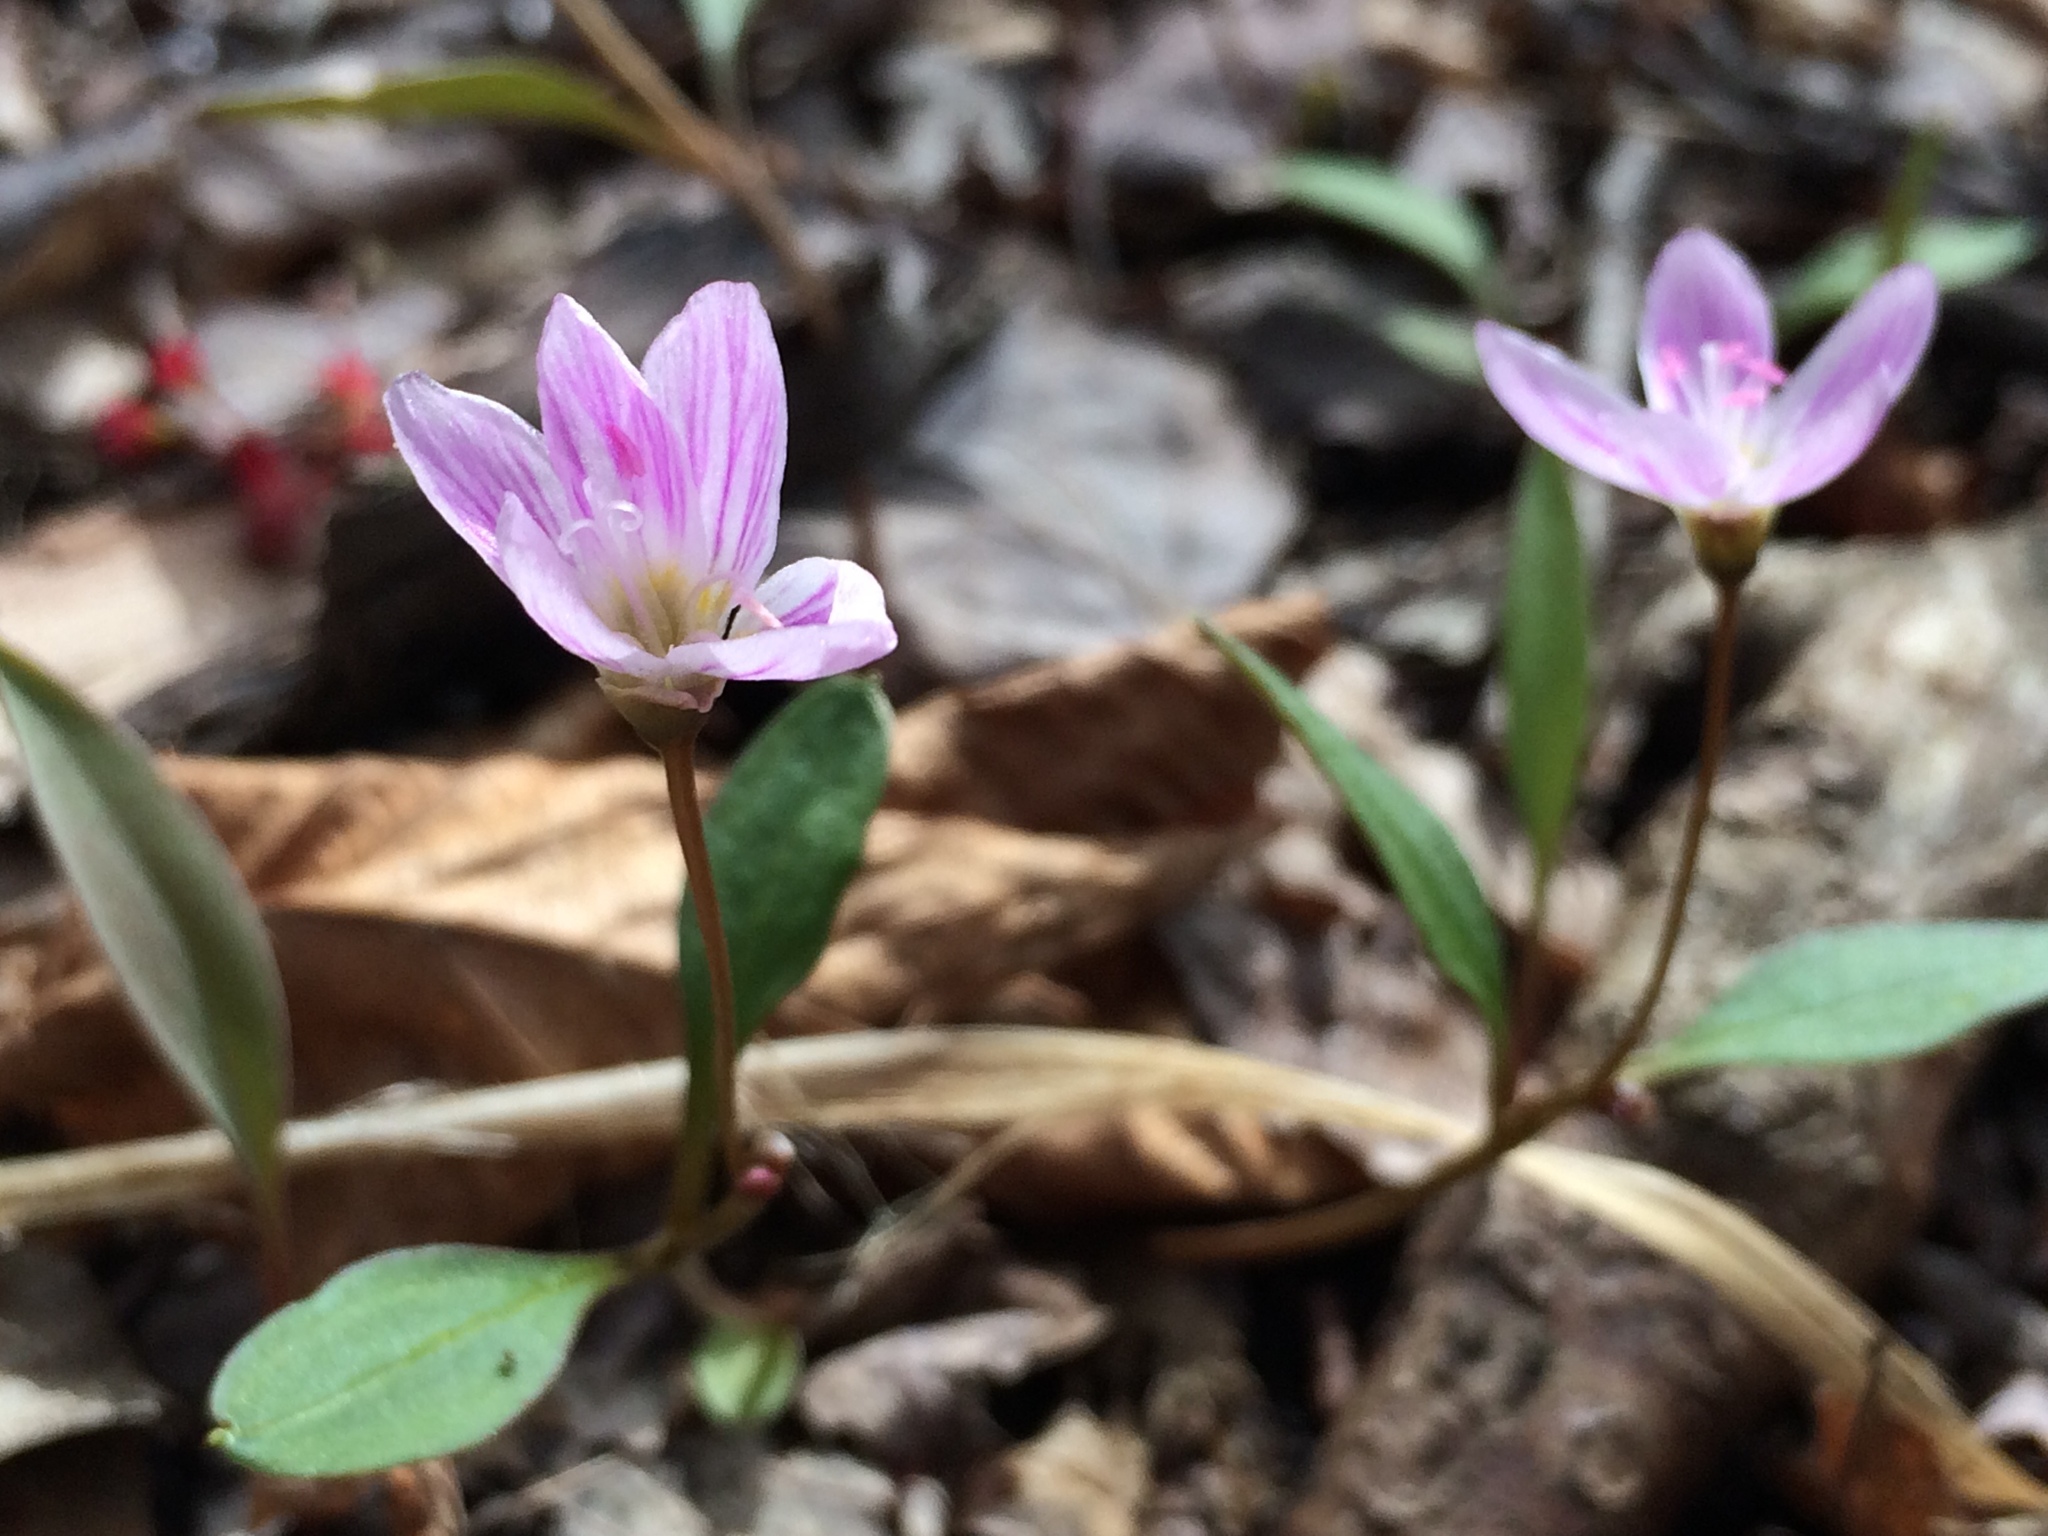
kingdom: Plantae
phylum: Tracheophyta
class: Magnoliopsida
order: Caryophyllales
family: Montiaceae
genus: Claytonia
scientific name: Claytonia caroliniana
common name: Carolina spring beauty
